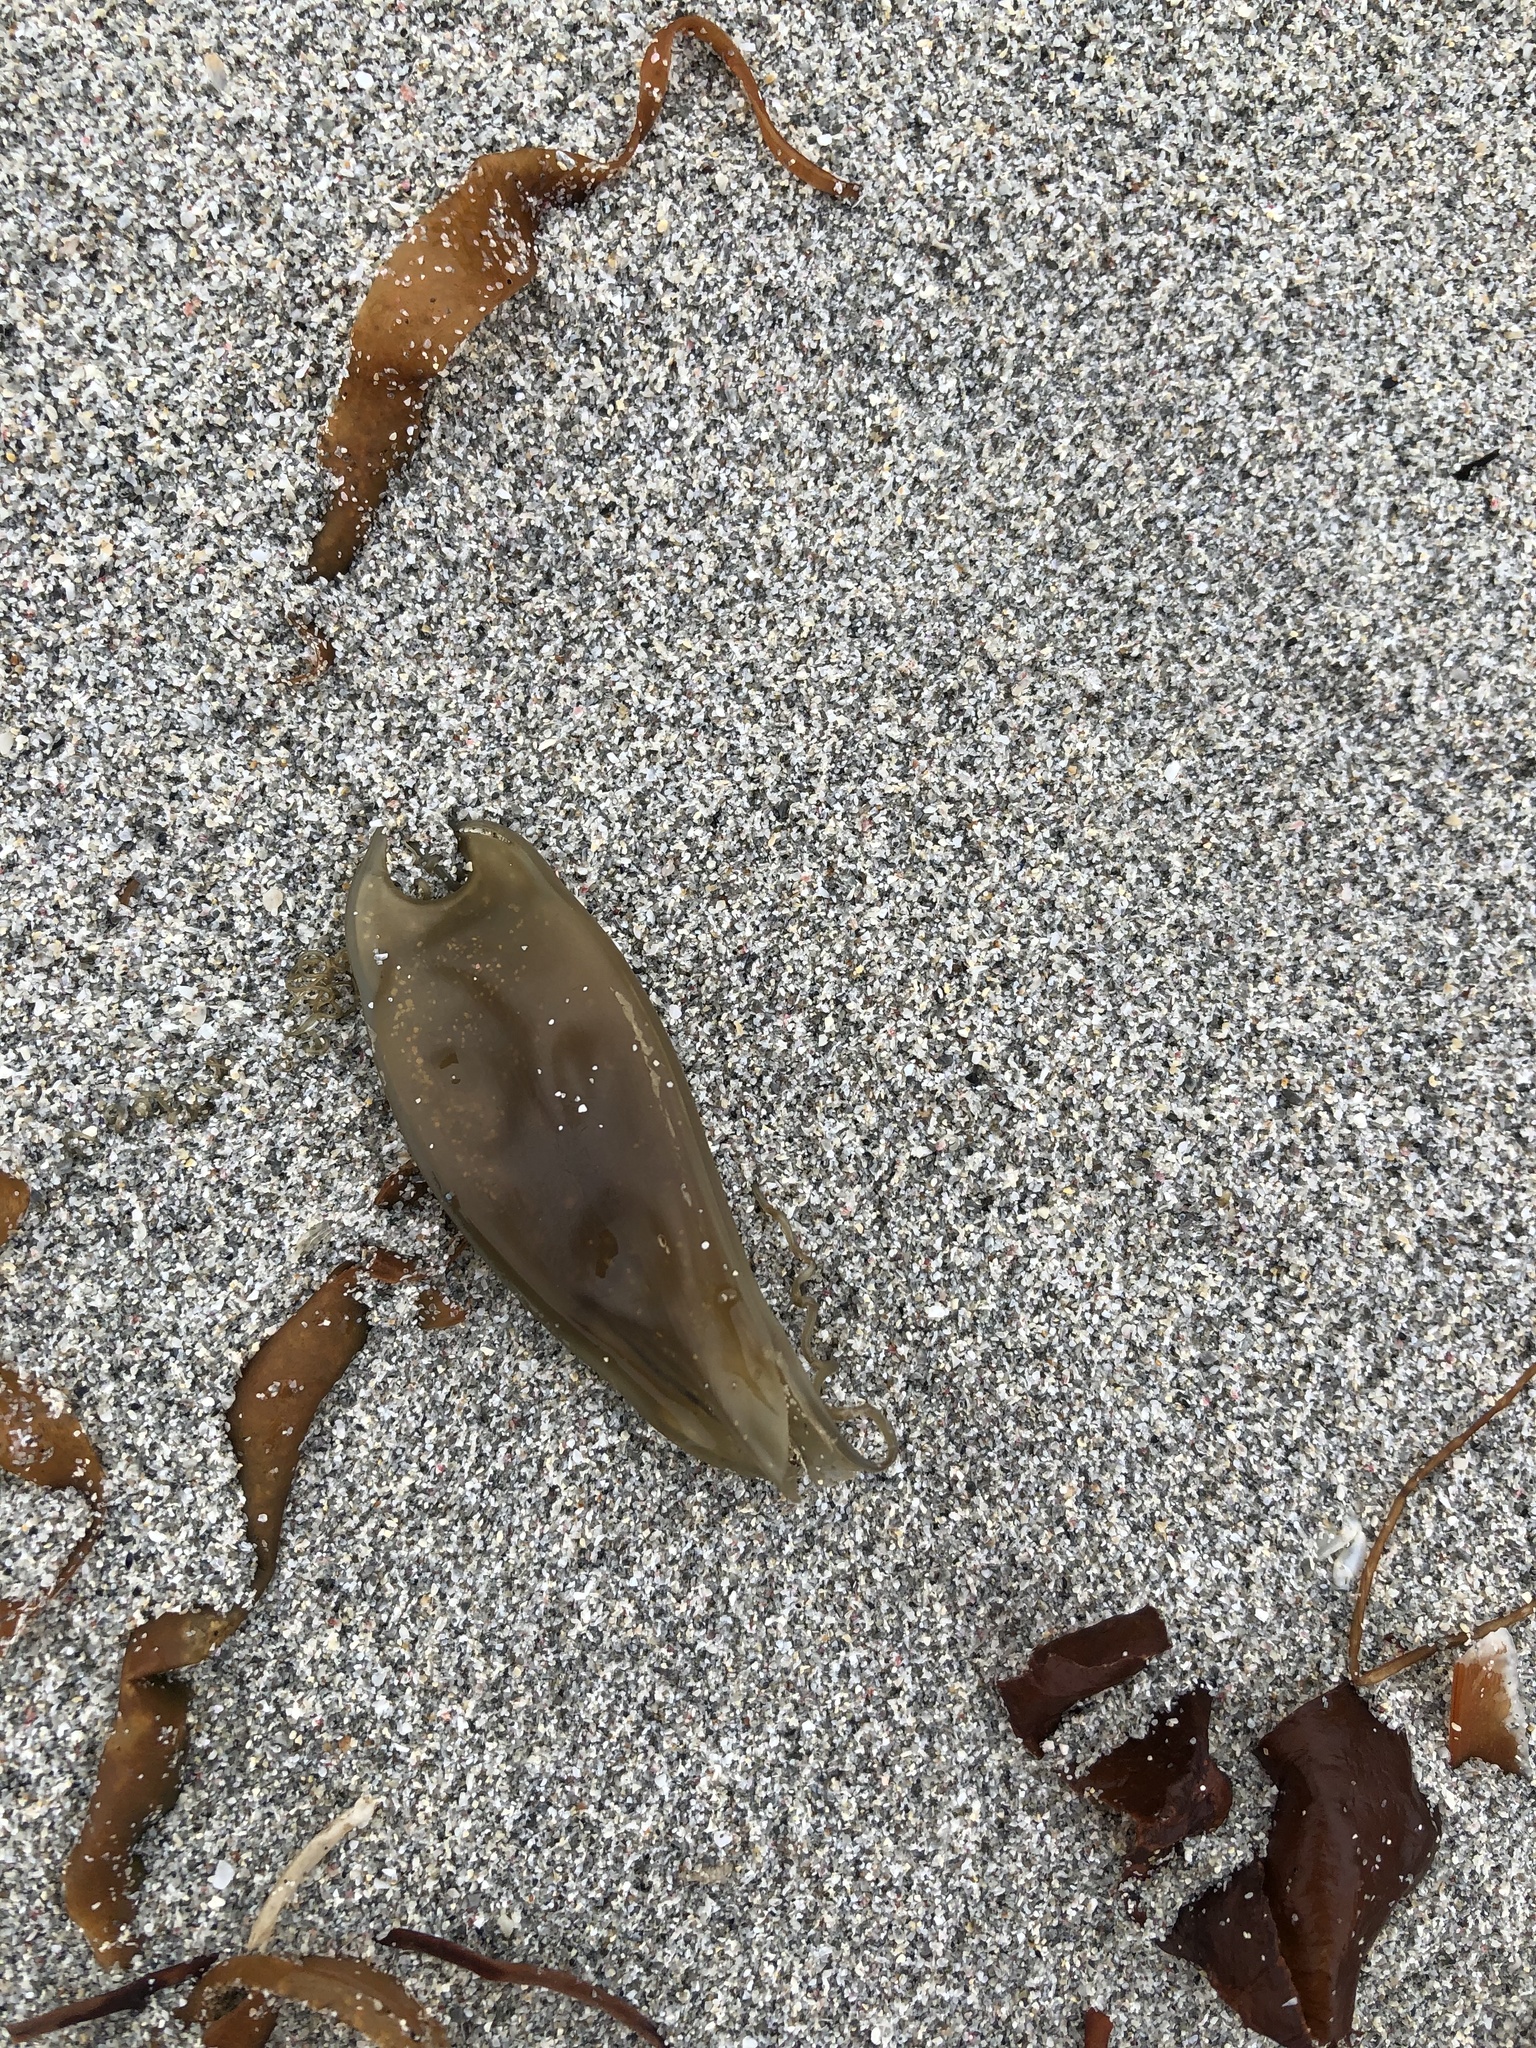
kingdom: Animalia
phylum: Chordata
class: Elasmobranchii
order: Carcharhiniformes
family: Scyliorhinidae
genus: Scyliorhinus
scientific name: Scyliorhinus canicula
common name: Lesser spotted dogfish
